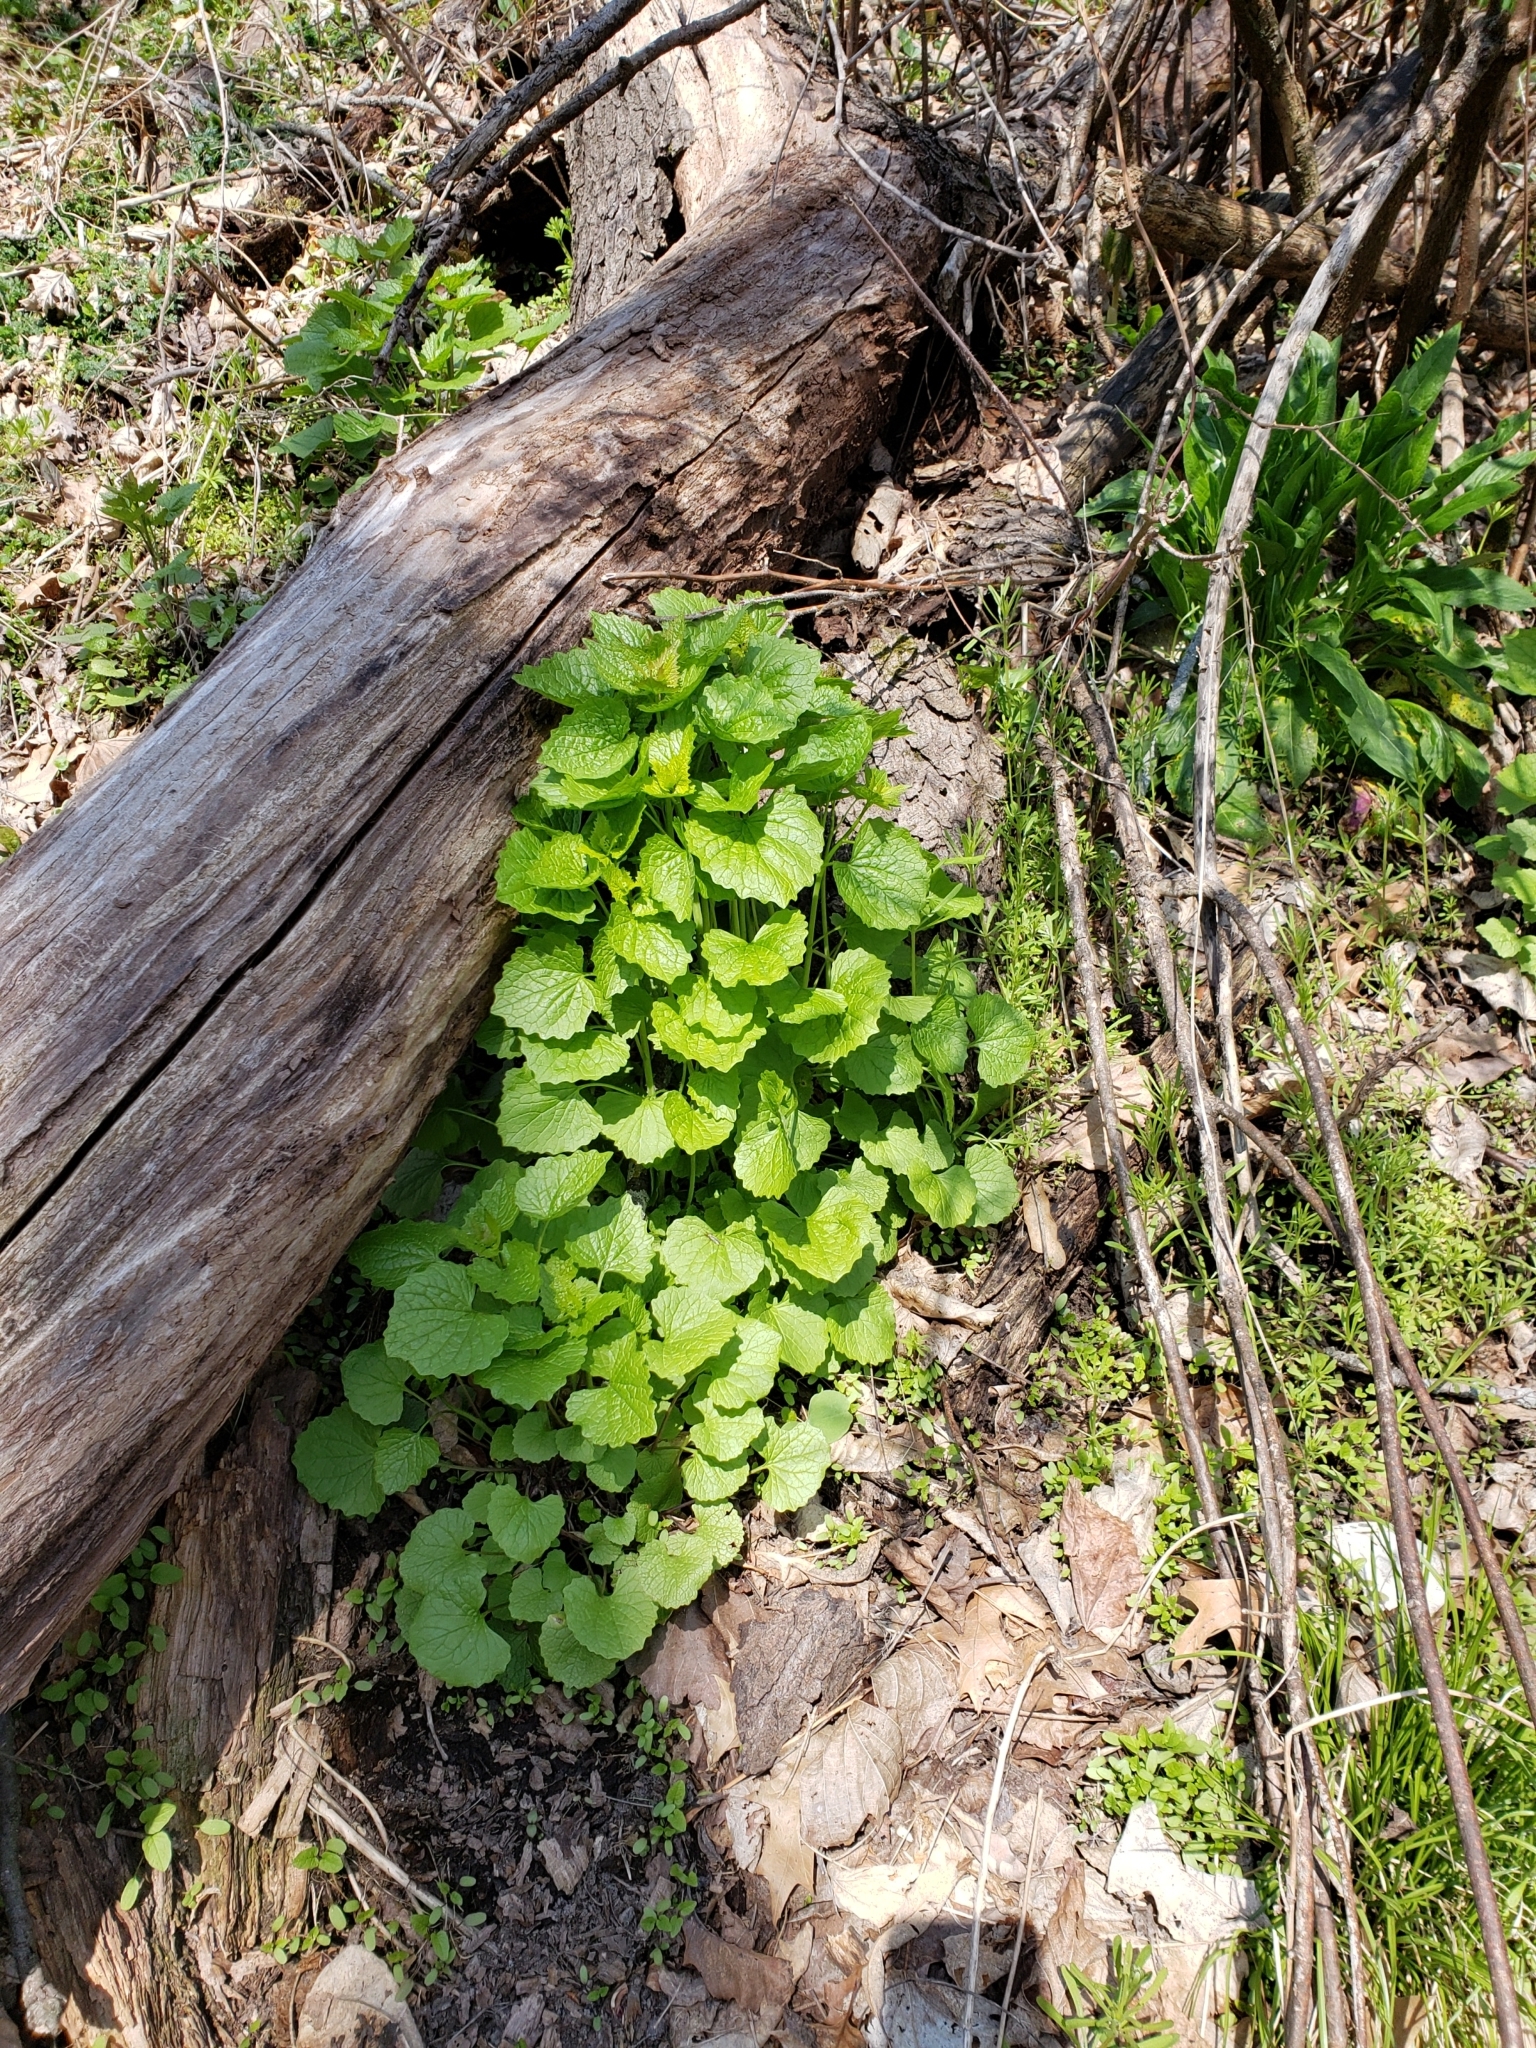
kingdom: Plantae
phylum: Tracheophyta
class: Magnoliopsida
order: Brassicales
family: Brassicaceae
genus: Alliaria
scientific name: Alliaria petiolata
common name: Garlic mustard
